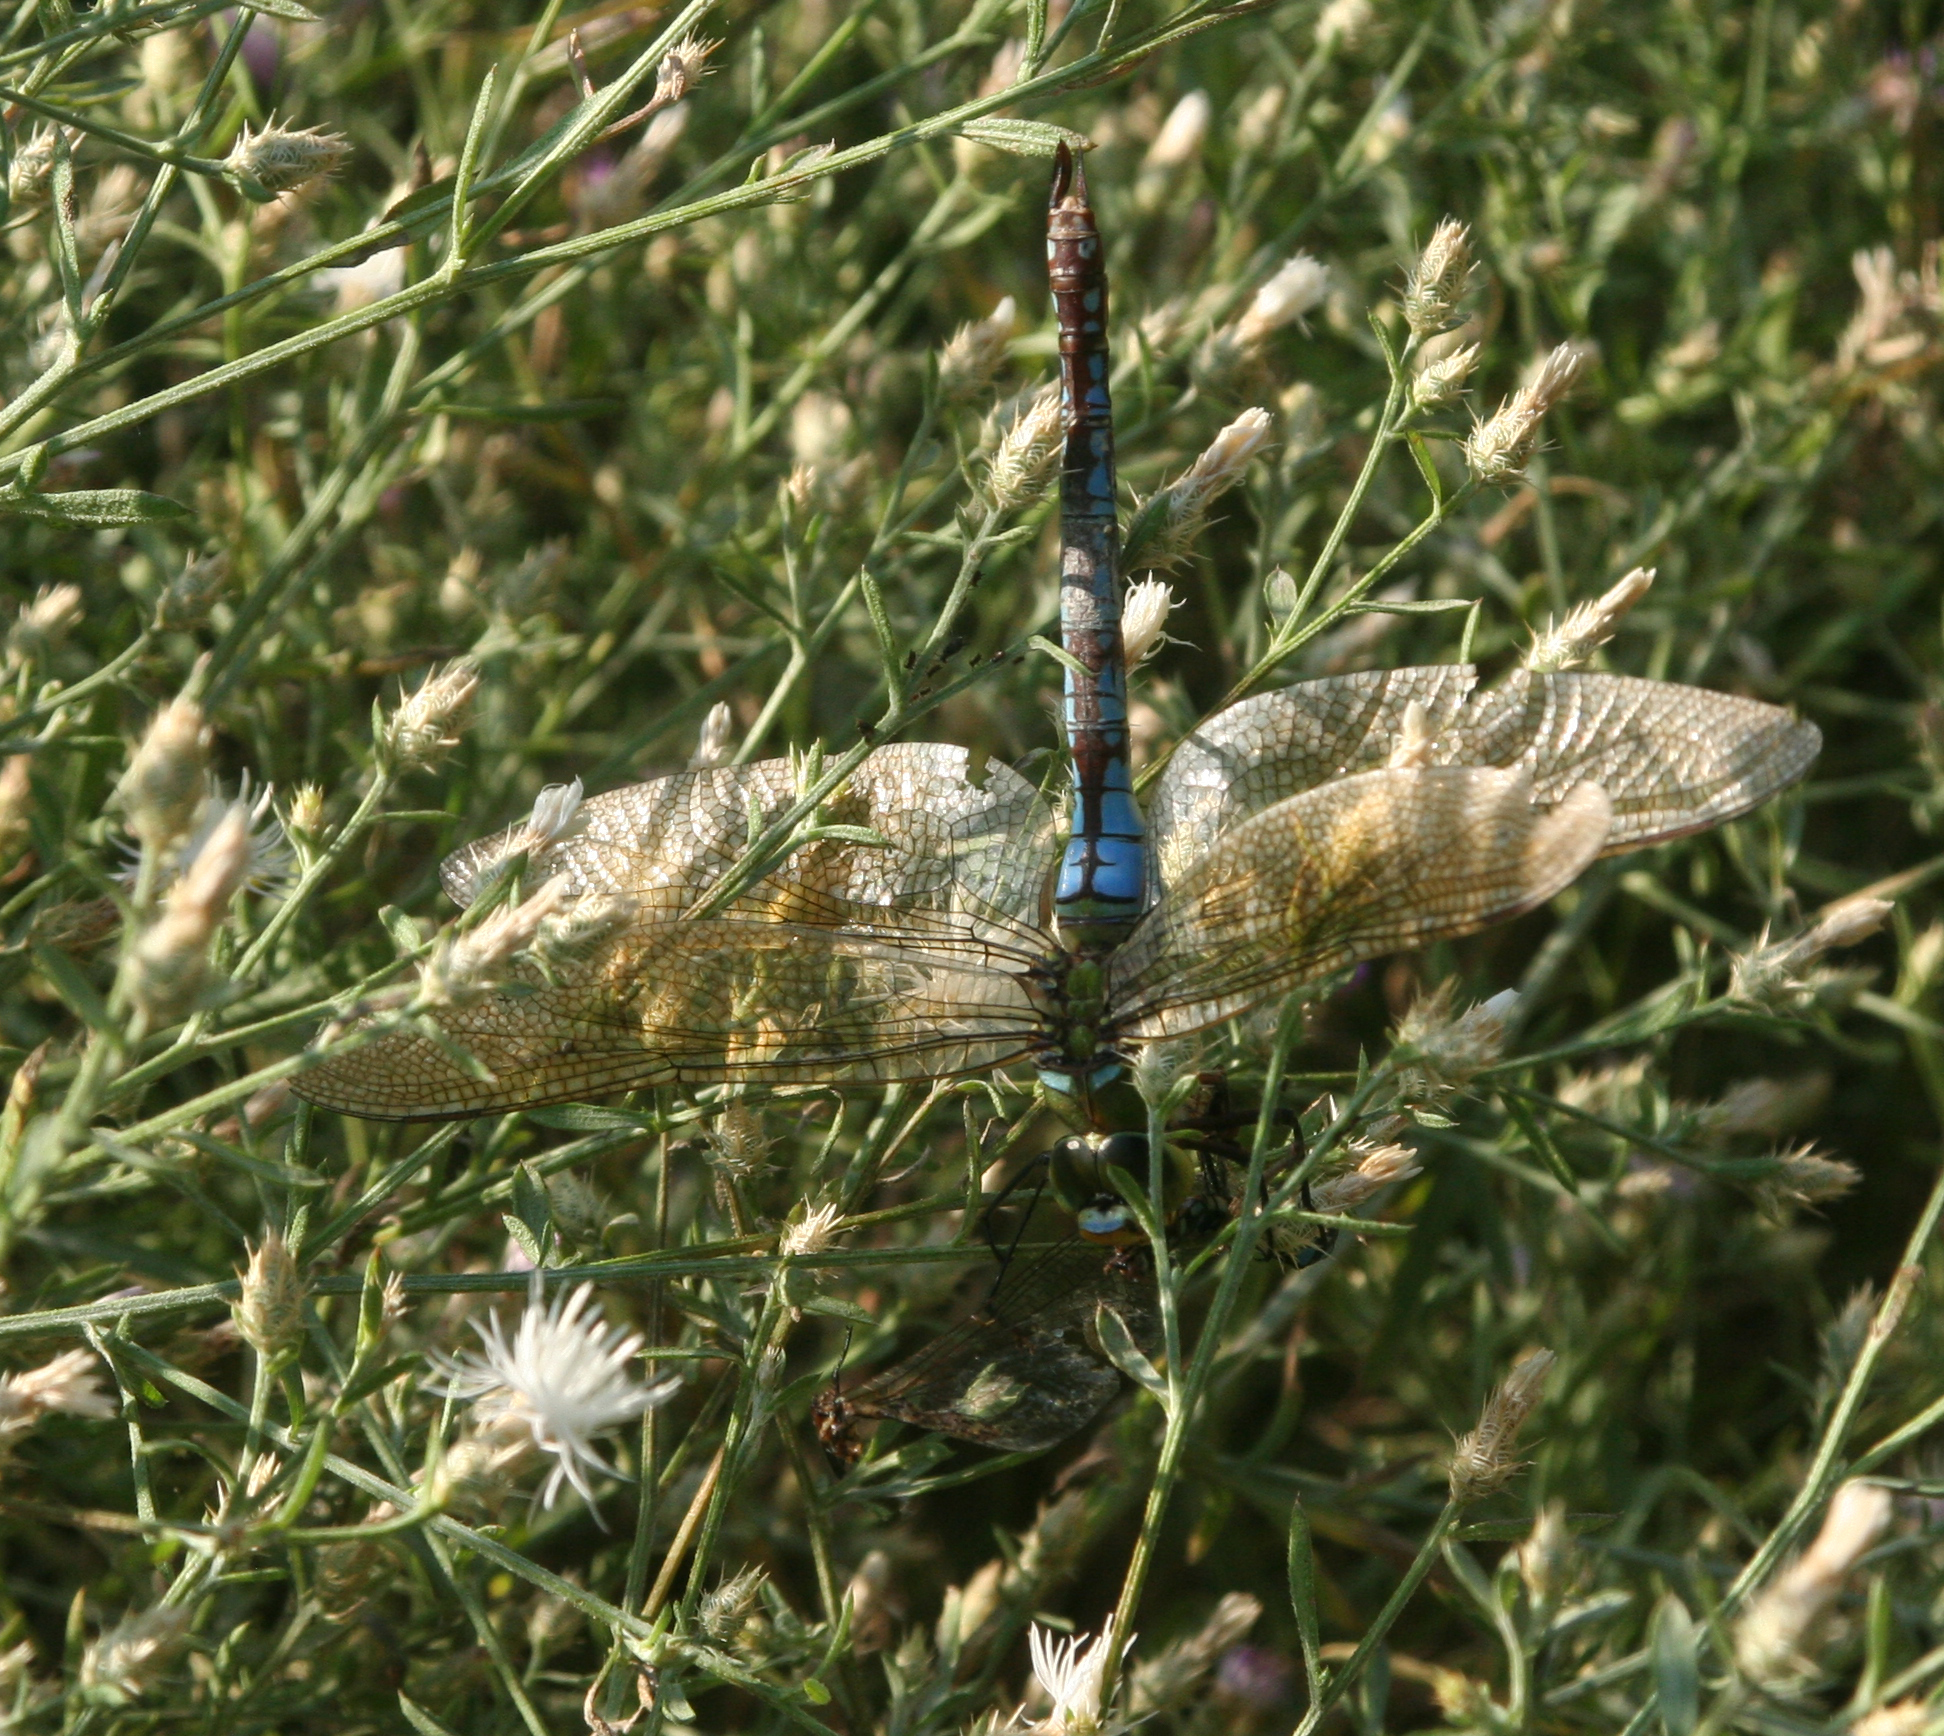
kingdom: Animalia
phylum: Arthropoda
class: Insecta
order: Odonata
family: Aeshnidae
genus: Anax
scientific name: Anax imperator
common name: Emperor dragonfly
